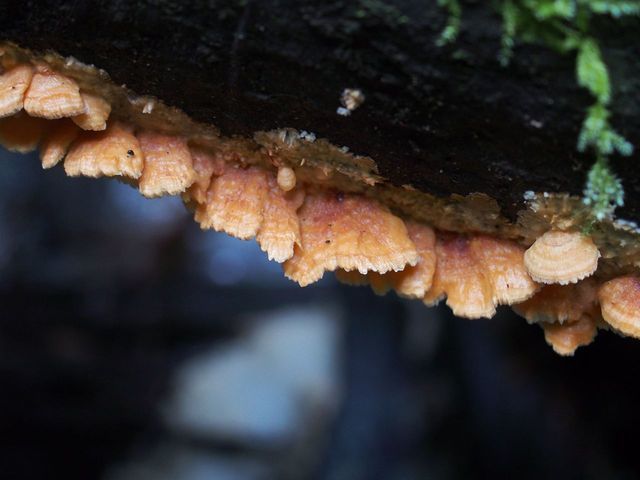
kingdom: Fungi
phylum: Basidiomycota
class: Agaricomycetes
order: Polyporales
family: Cerrenaceae
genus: Cerrena
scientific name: Cerrena zonata
